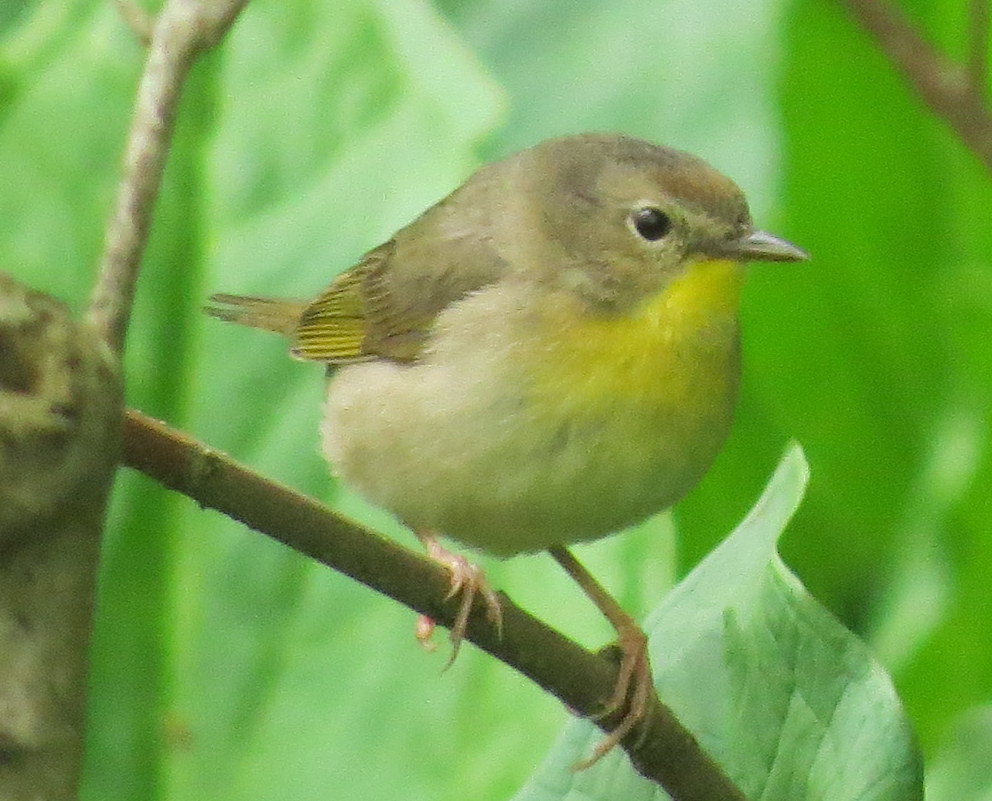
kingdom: Animalia
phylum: Chordata
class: Aves
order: Passeriformes
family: Parulidae
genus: Geothlypis
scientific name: Geothlypis trichas
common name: Common yellowthroat
